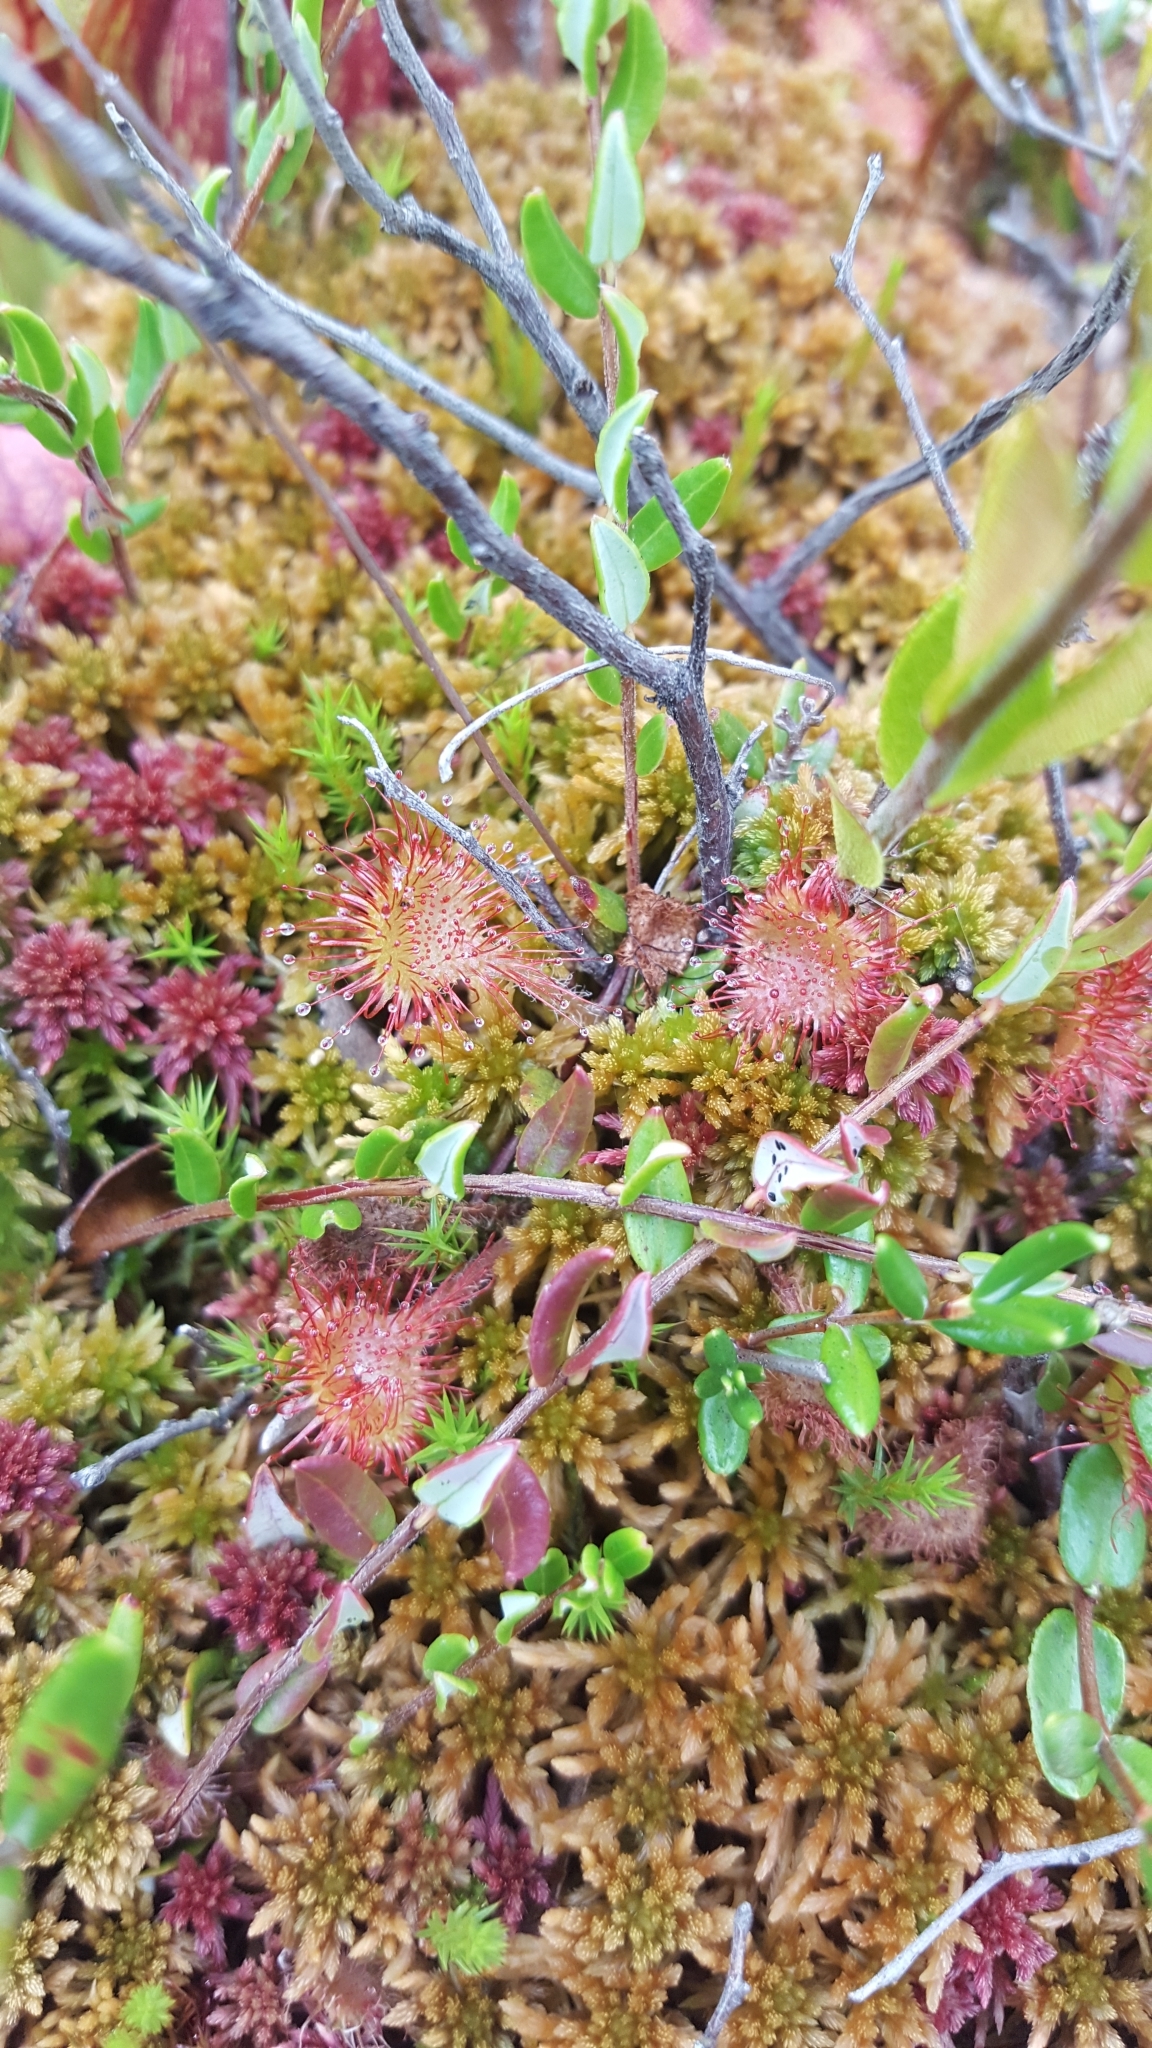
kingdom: Plantae
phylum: Tracheophyta
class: Magnoliopsida
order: Caryophyllales
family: Droseraceae
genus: Drosera
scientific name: Drosera rotundifolia
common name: Round-leaved sundew
